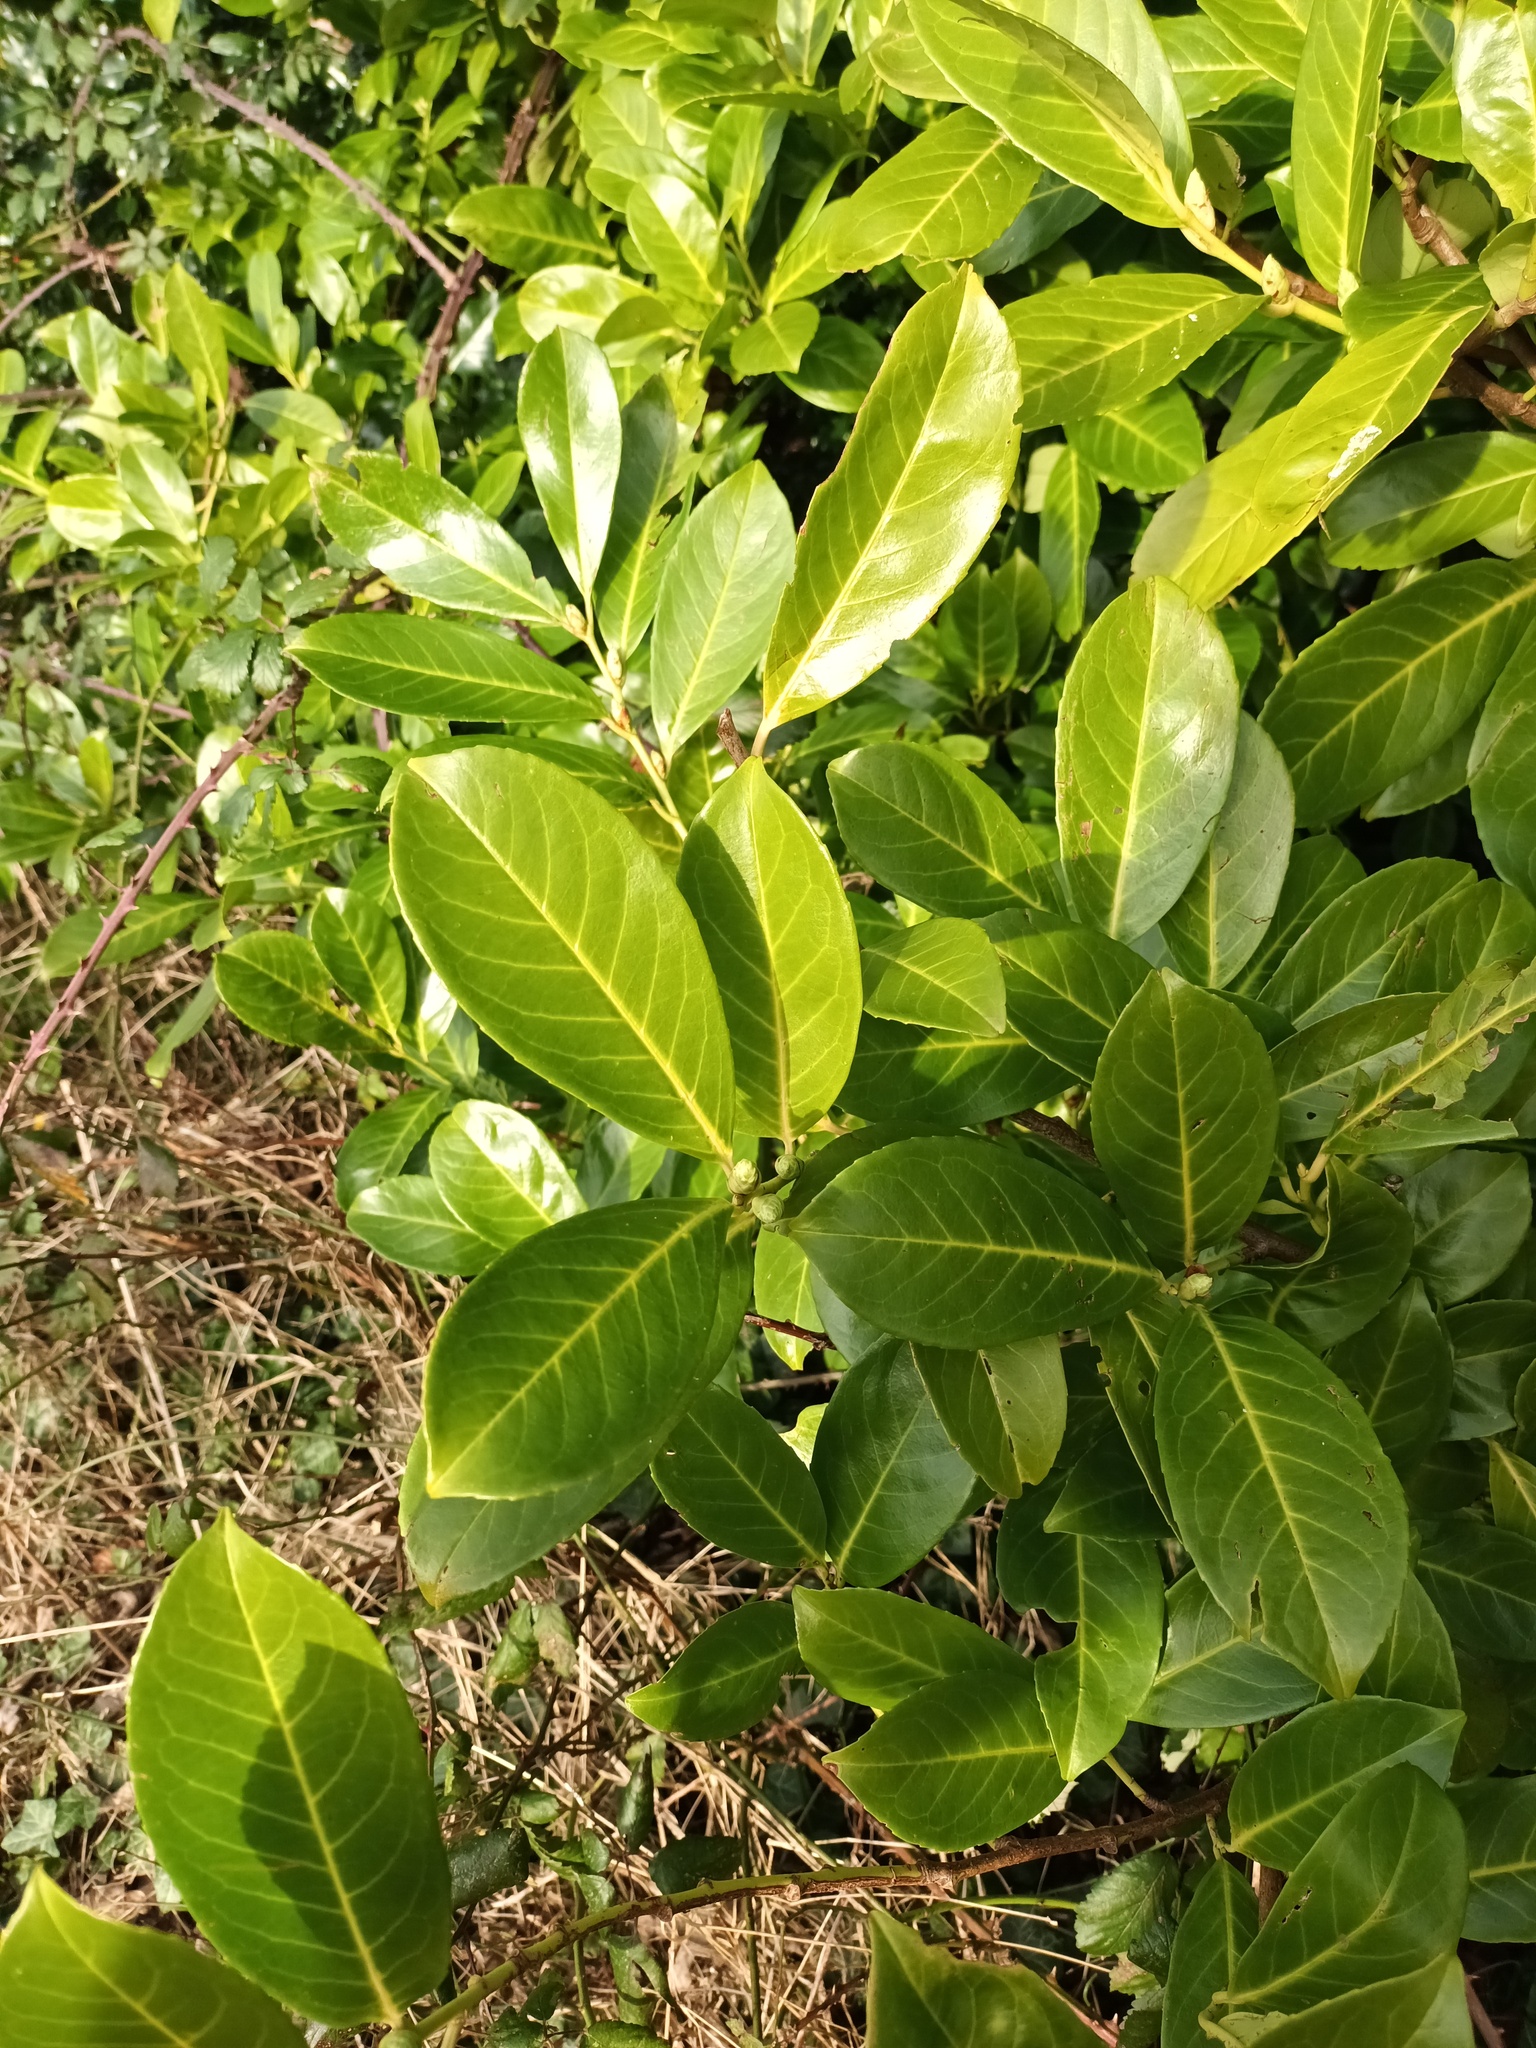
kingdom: Plantae
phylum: Tracheophyta
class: Magnoliopsida
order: Rosales
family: Rosaceae
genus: Prunus
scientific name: Prunus laurocerasus
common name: Cherry laurel
